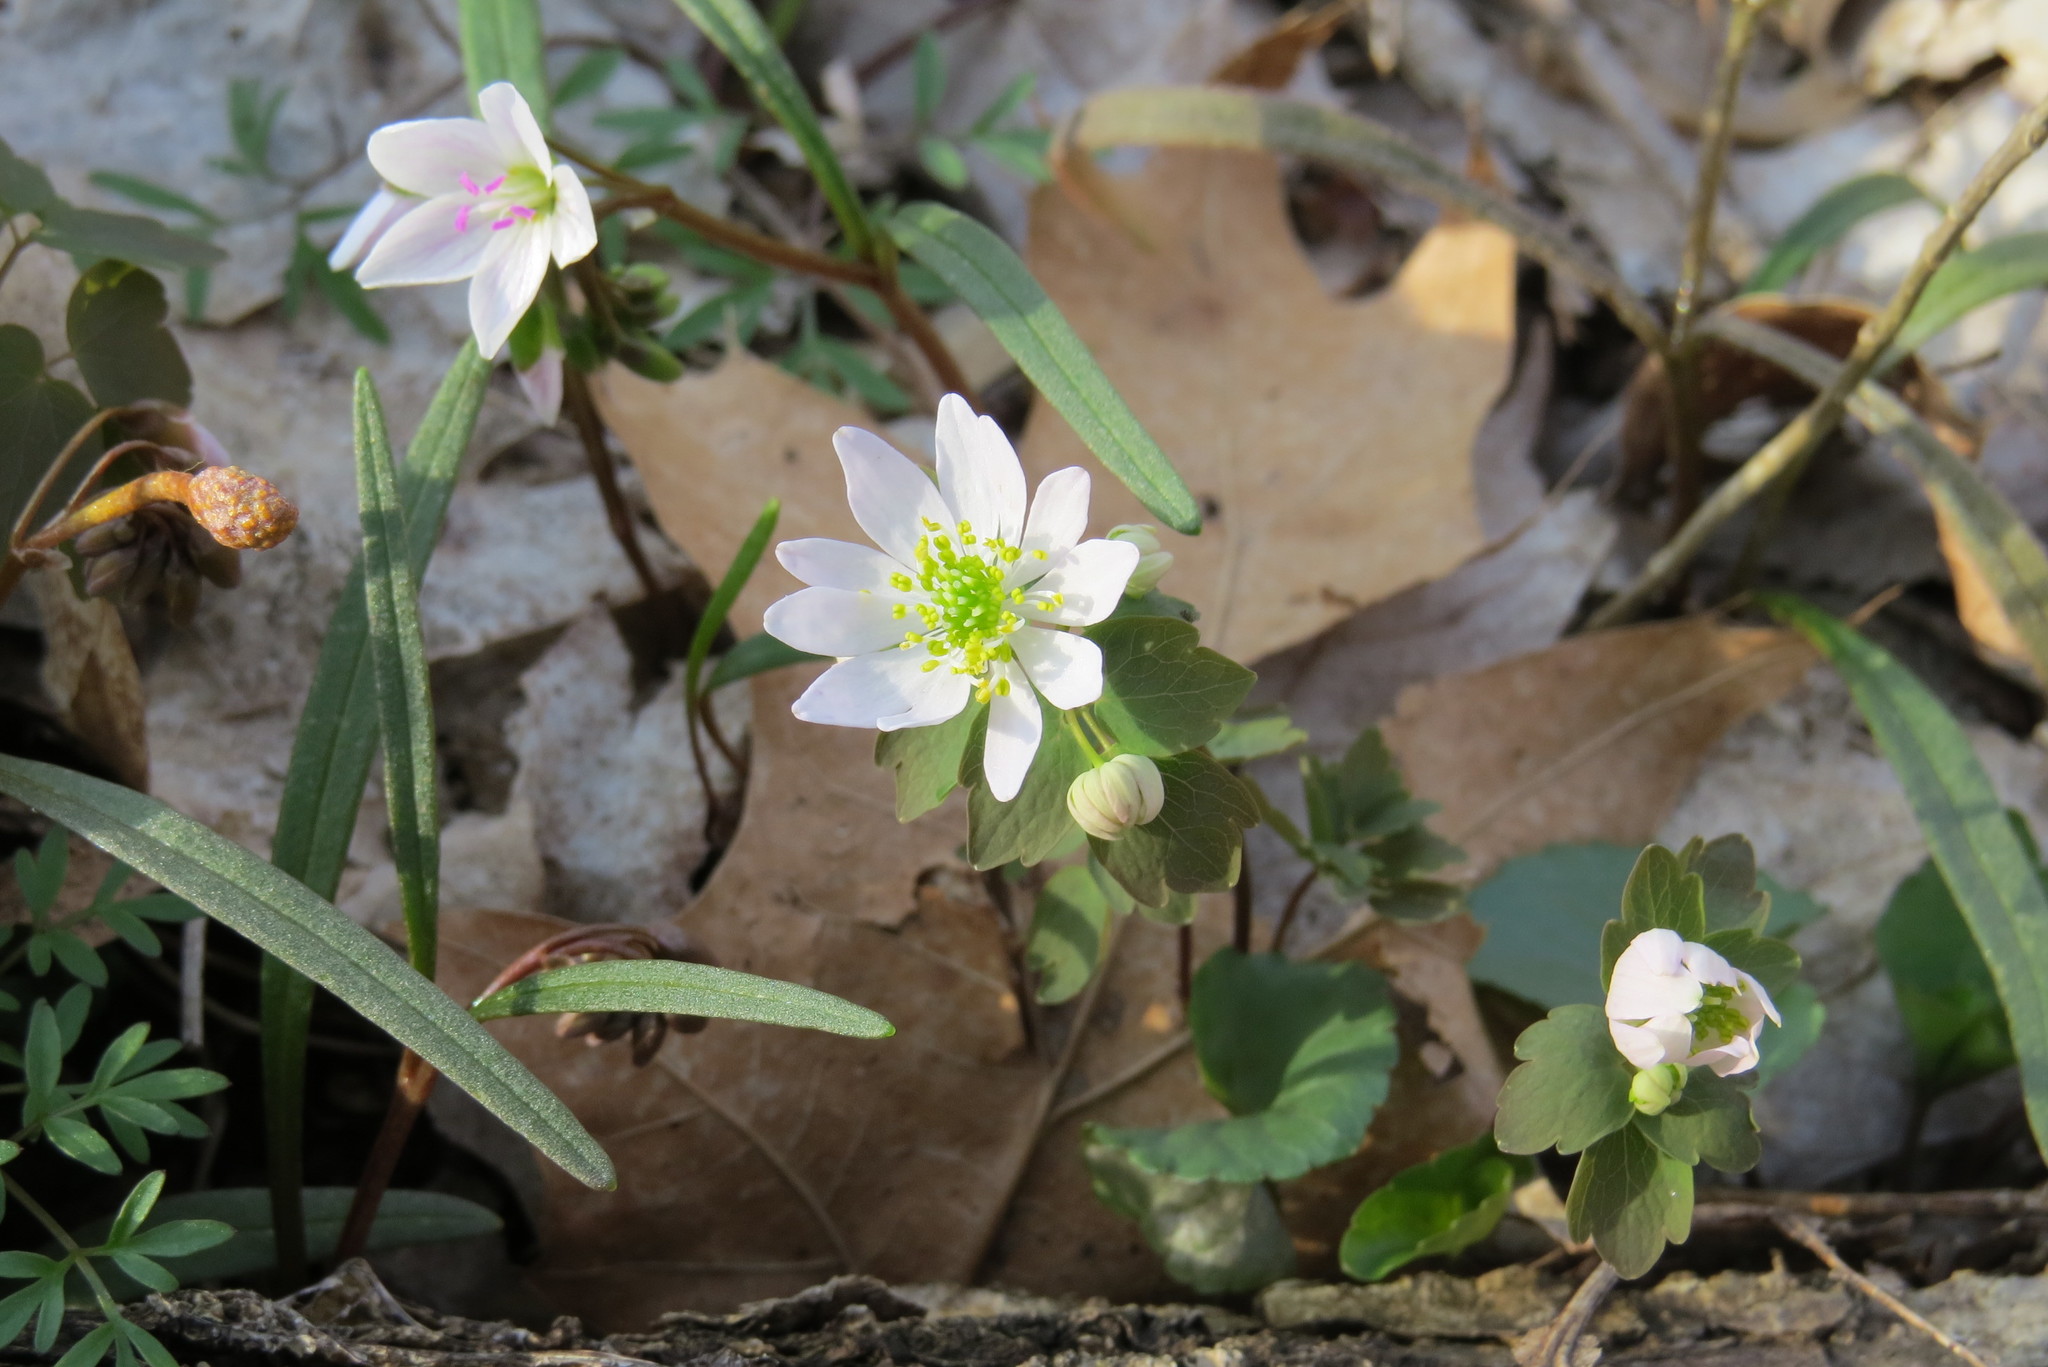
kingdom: Plantae
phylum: Tracheophyta
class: Magnoliopsida
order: Ranunculales
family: Ranunculaceae
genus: Thalictrum
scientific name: Thalictrum thalictroides
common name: Rue-anemone
